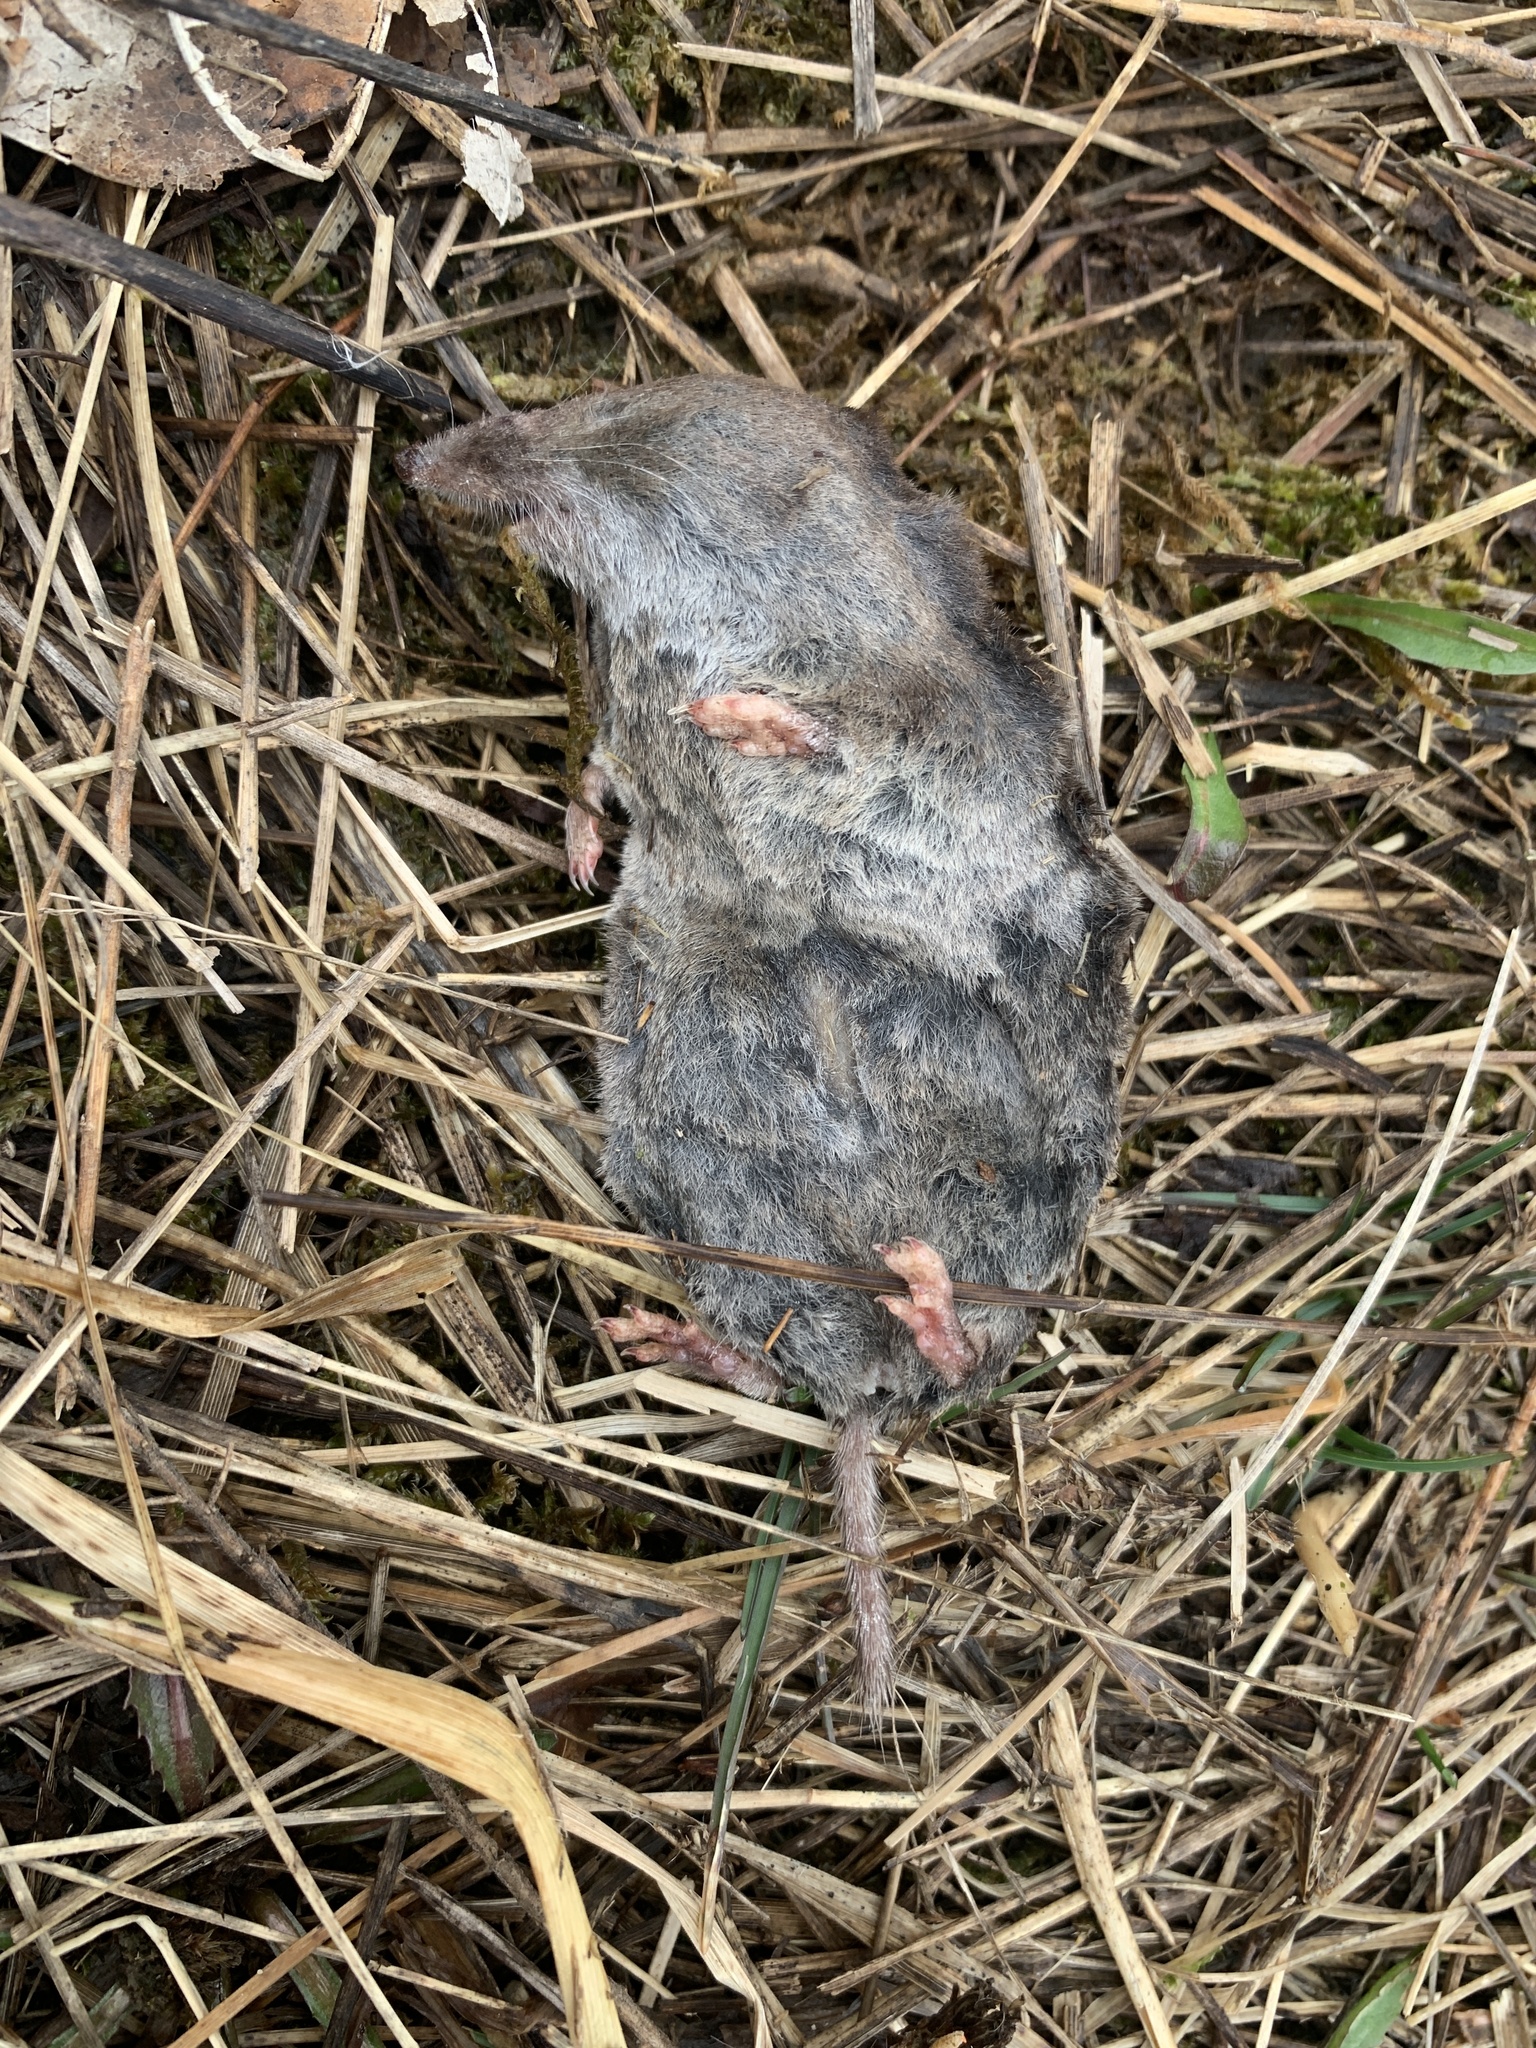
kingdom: Animalia
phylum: Chordata
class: Mammalia
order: Soricomorpha
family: Soricidae
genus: Blarina
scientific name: Blarina brevicauda
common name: Northern short-tailed shrew
